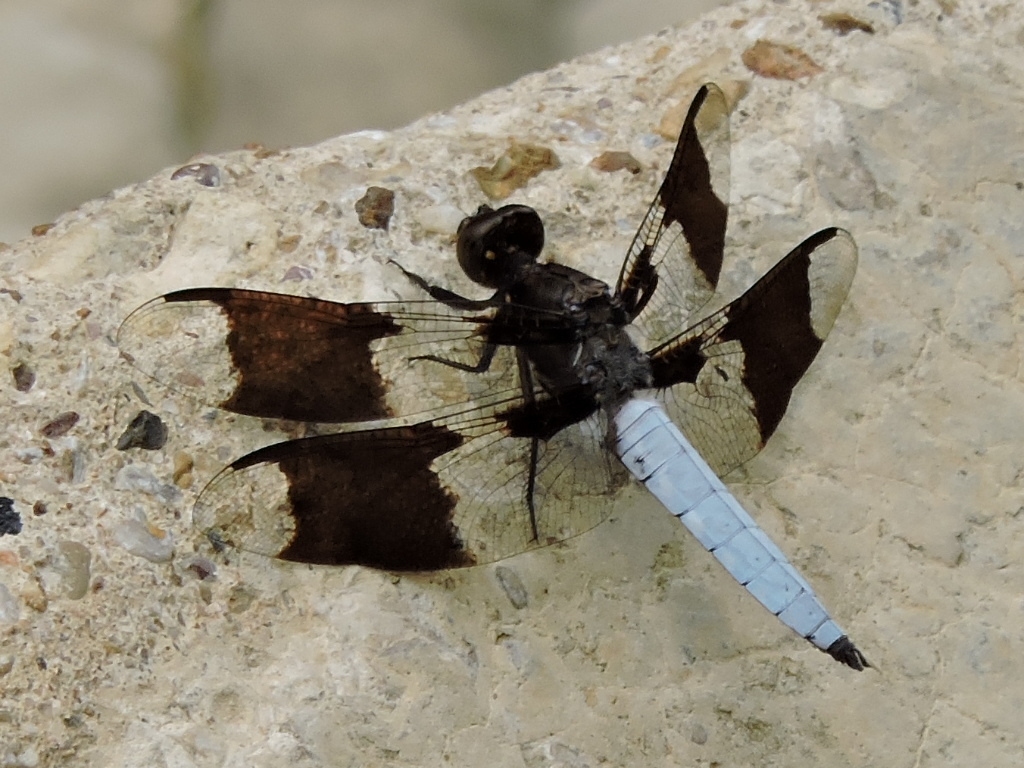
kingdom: Animalia
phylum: Arthropoda
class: Insecta
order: Odonata
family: Libellulidae
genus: Plathemis
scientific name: Plathemis lydia
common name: Common whitetail
